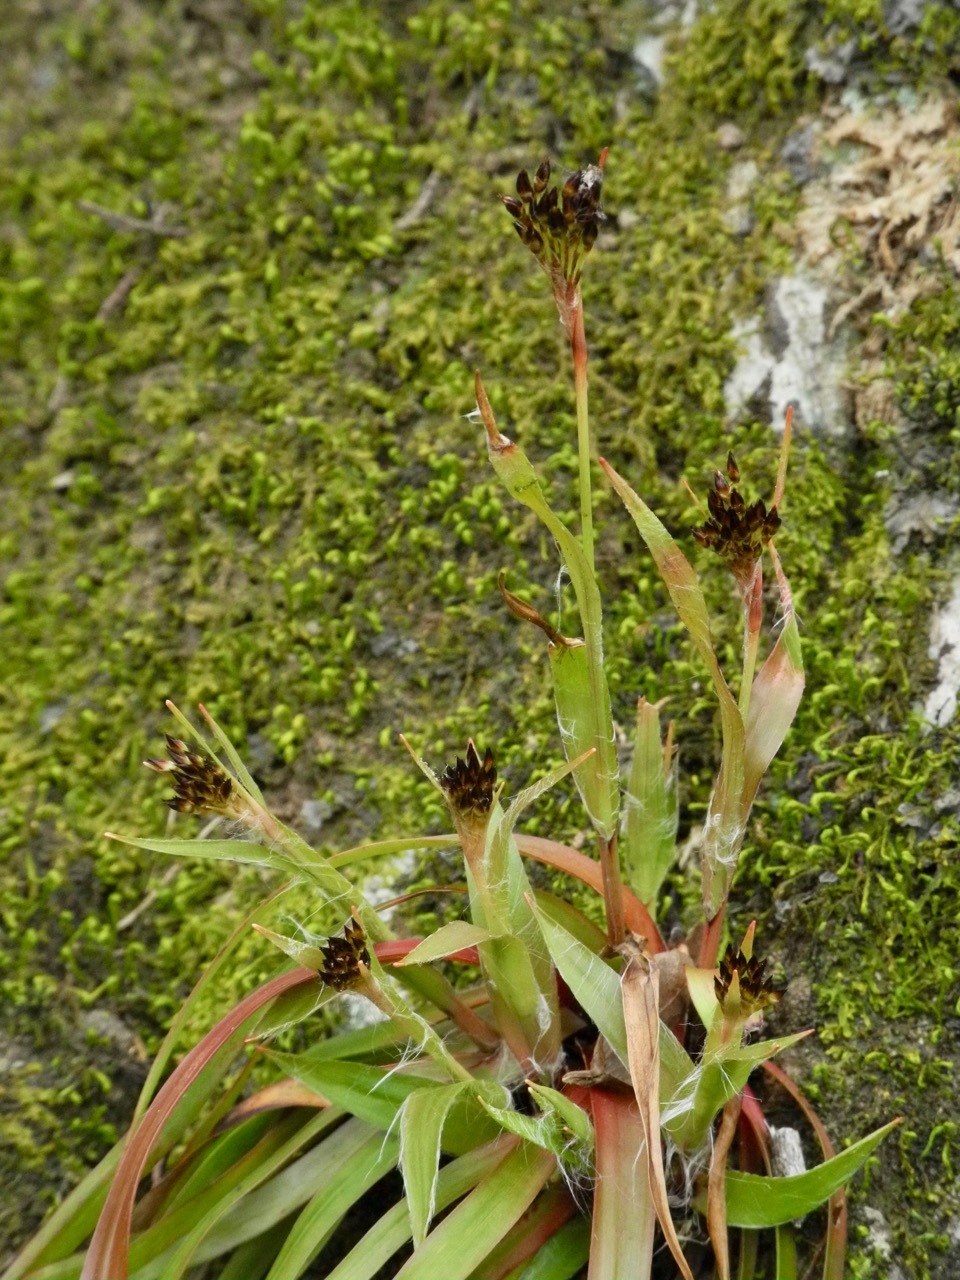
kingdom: Plantae
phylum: Tracheophyta
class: Liliopsida
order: Poales
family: Juncaceae
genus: Luzula
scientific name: Luzula echinata
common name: Hedgehog woodrush
